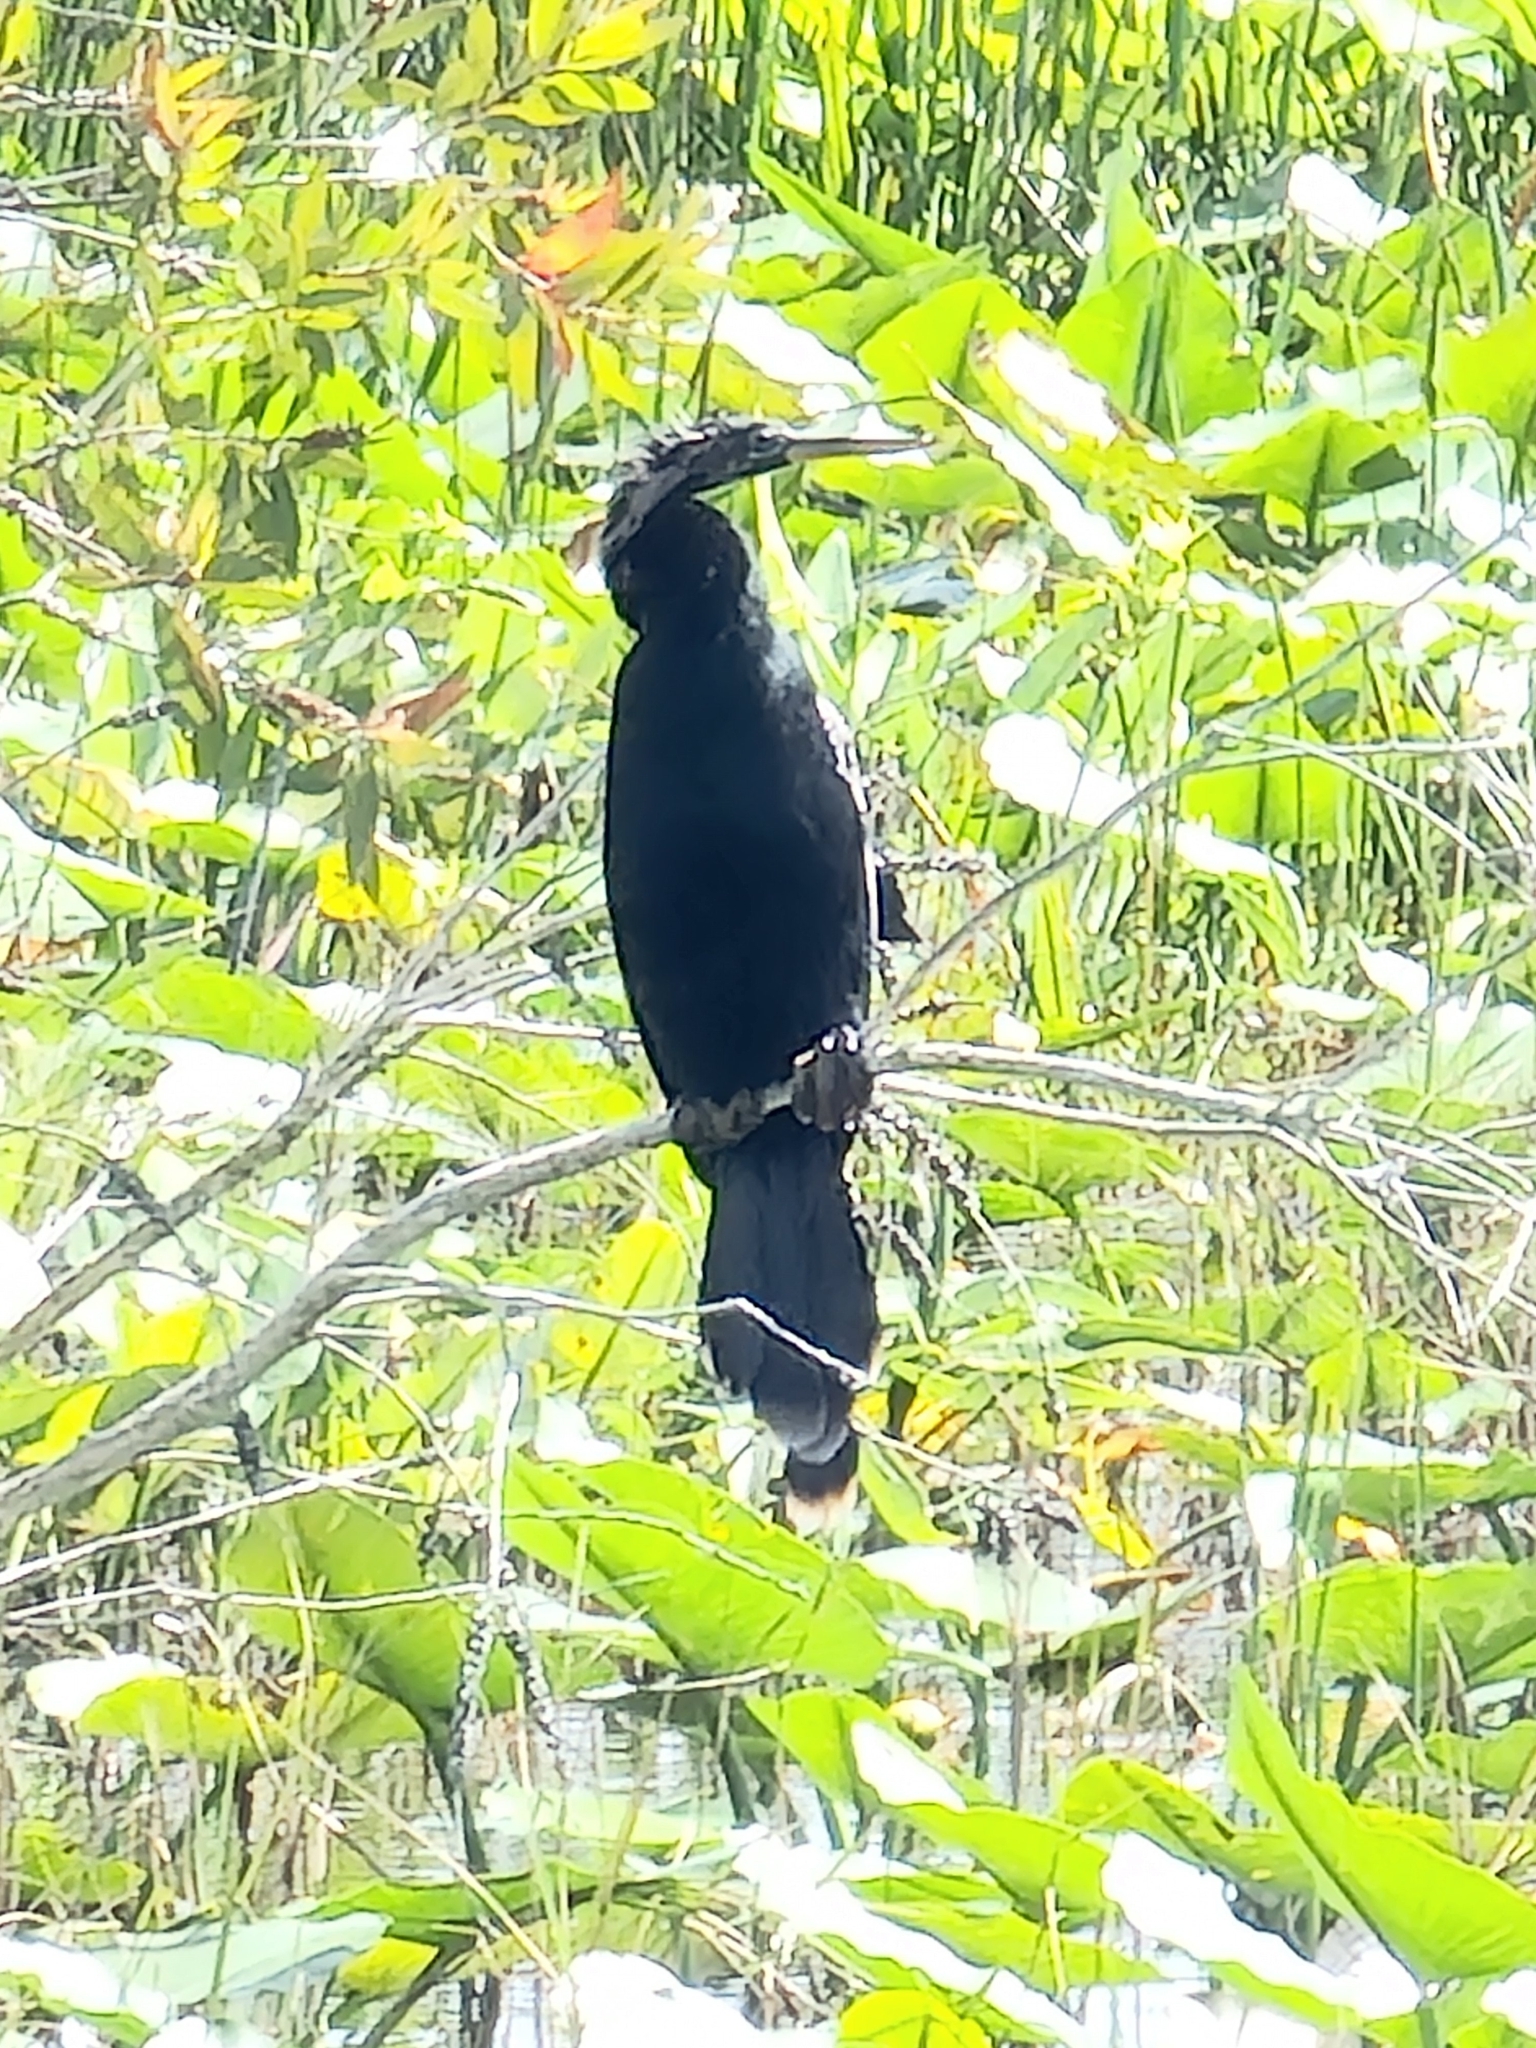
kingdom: Animalia
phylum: Chordata
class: Aves
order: Suliformes
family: Anhingidae
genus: Anhinga
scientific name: Anhinga anhinga
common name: Anhinga
